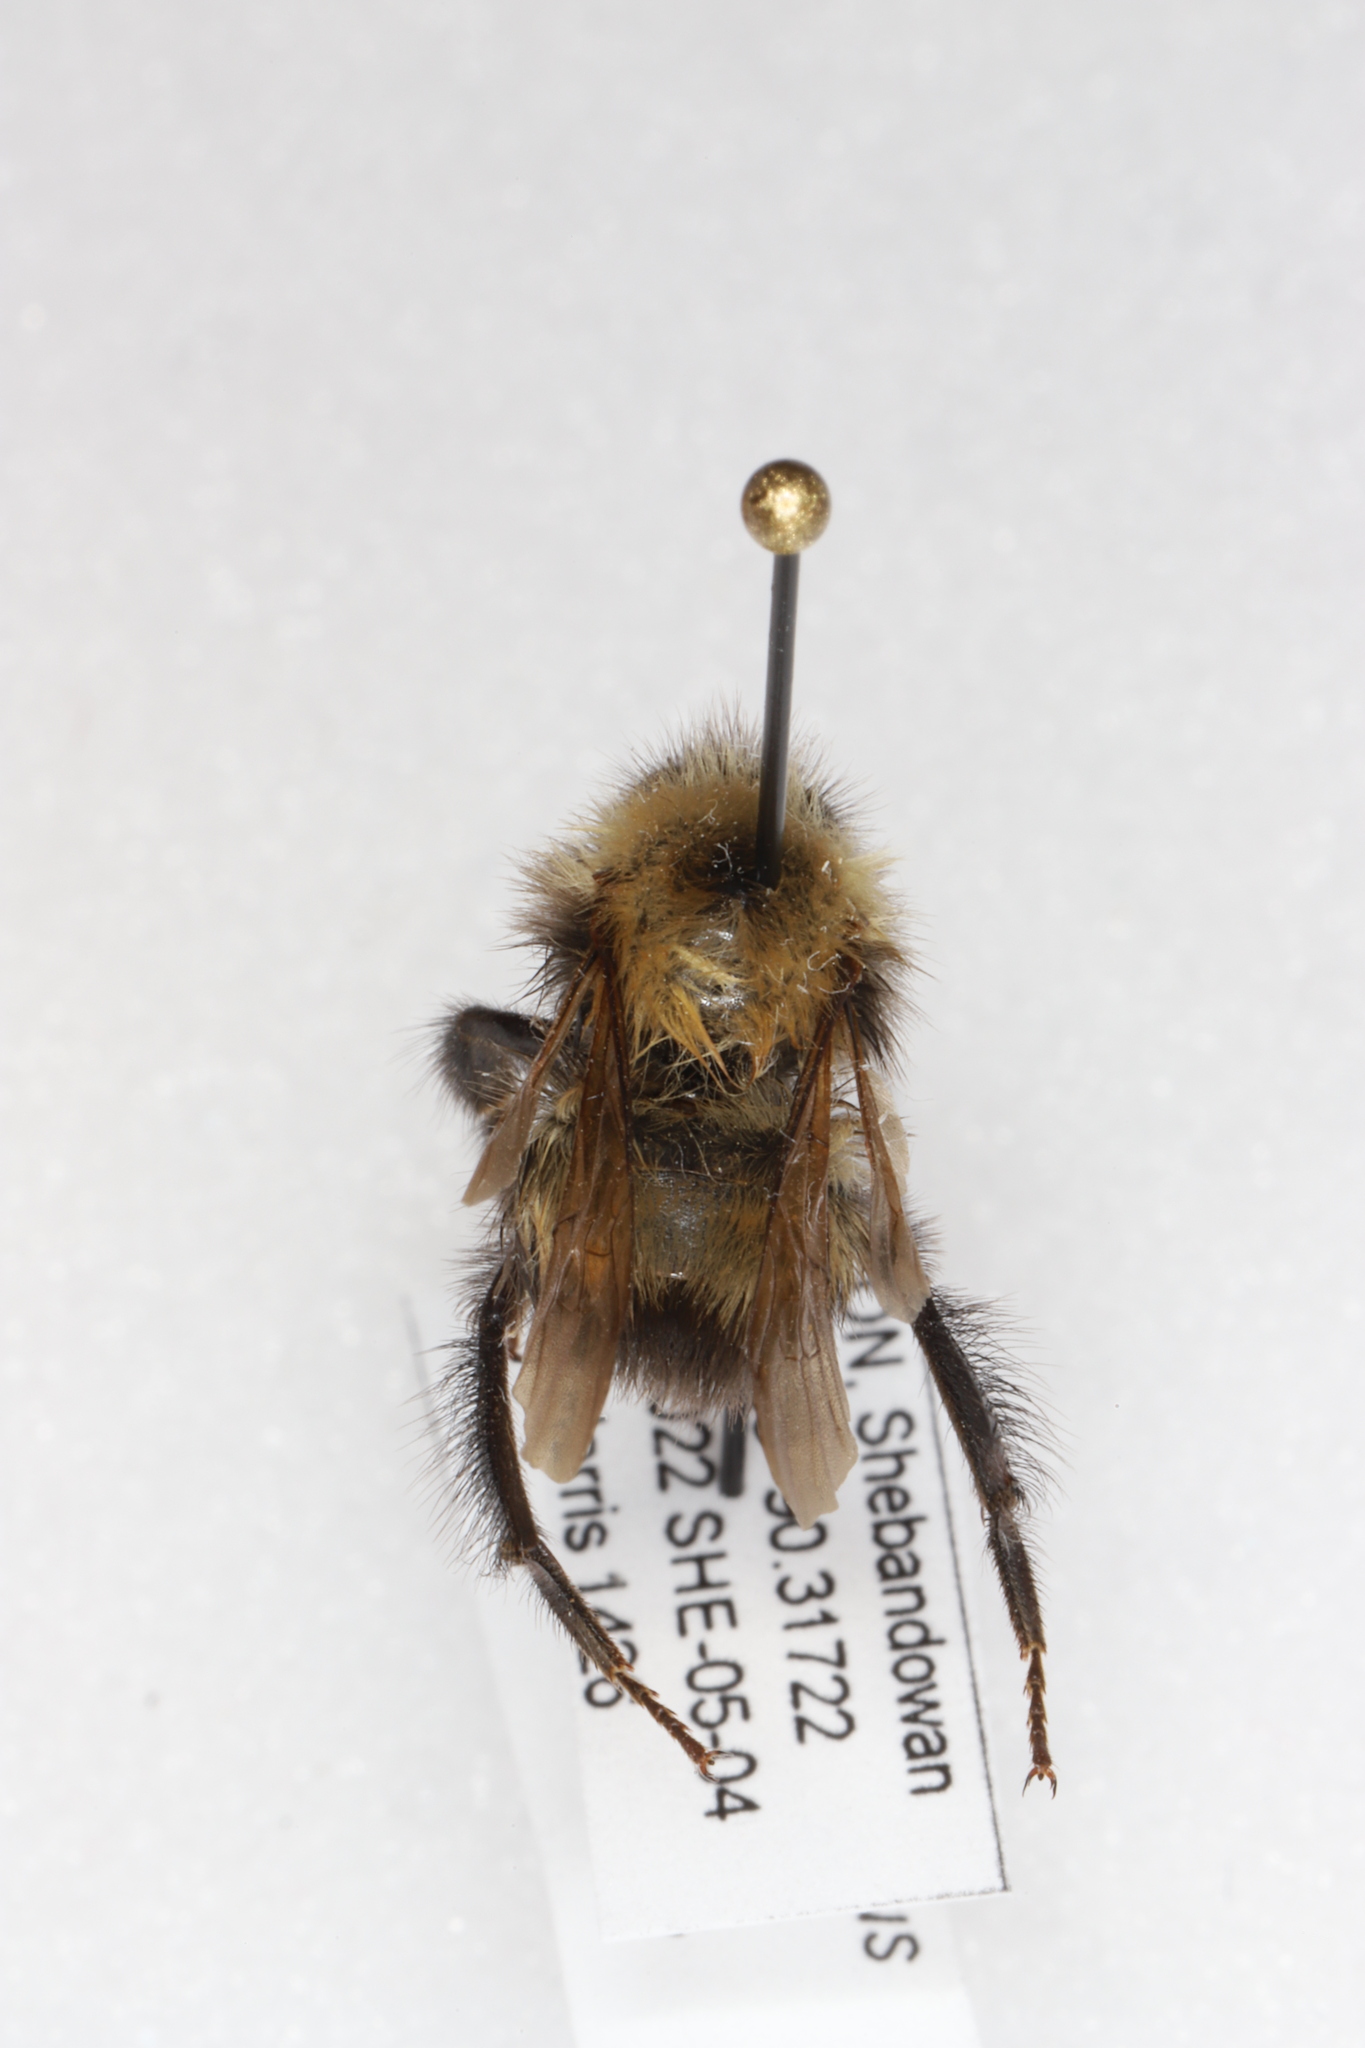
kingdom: Animalia
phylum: Arthropoda
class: Insecta
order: Hymenoptera
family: Apidae
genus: Bombus
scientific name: Bombus perplexus
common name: Confusing bumble bee
